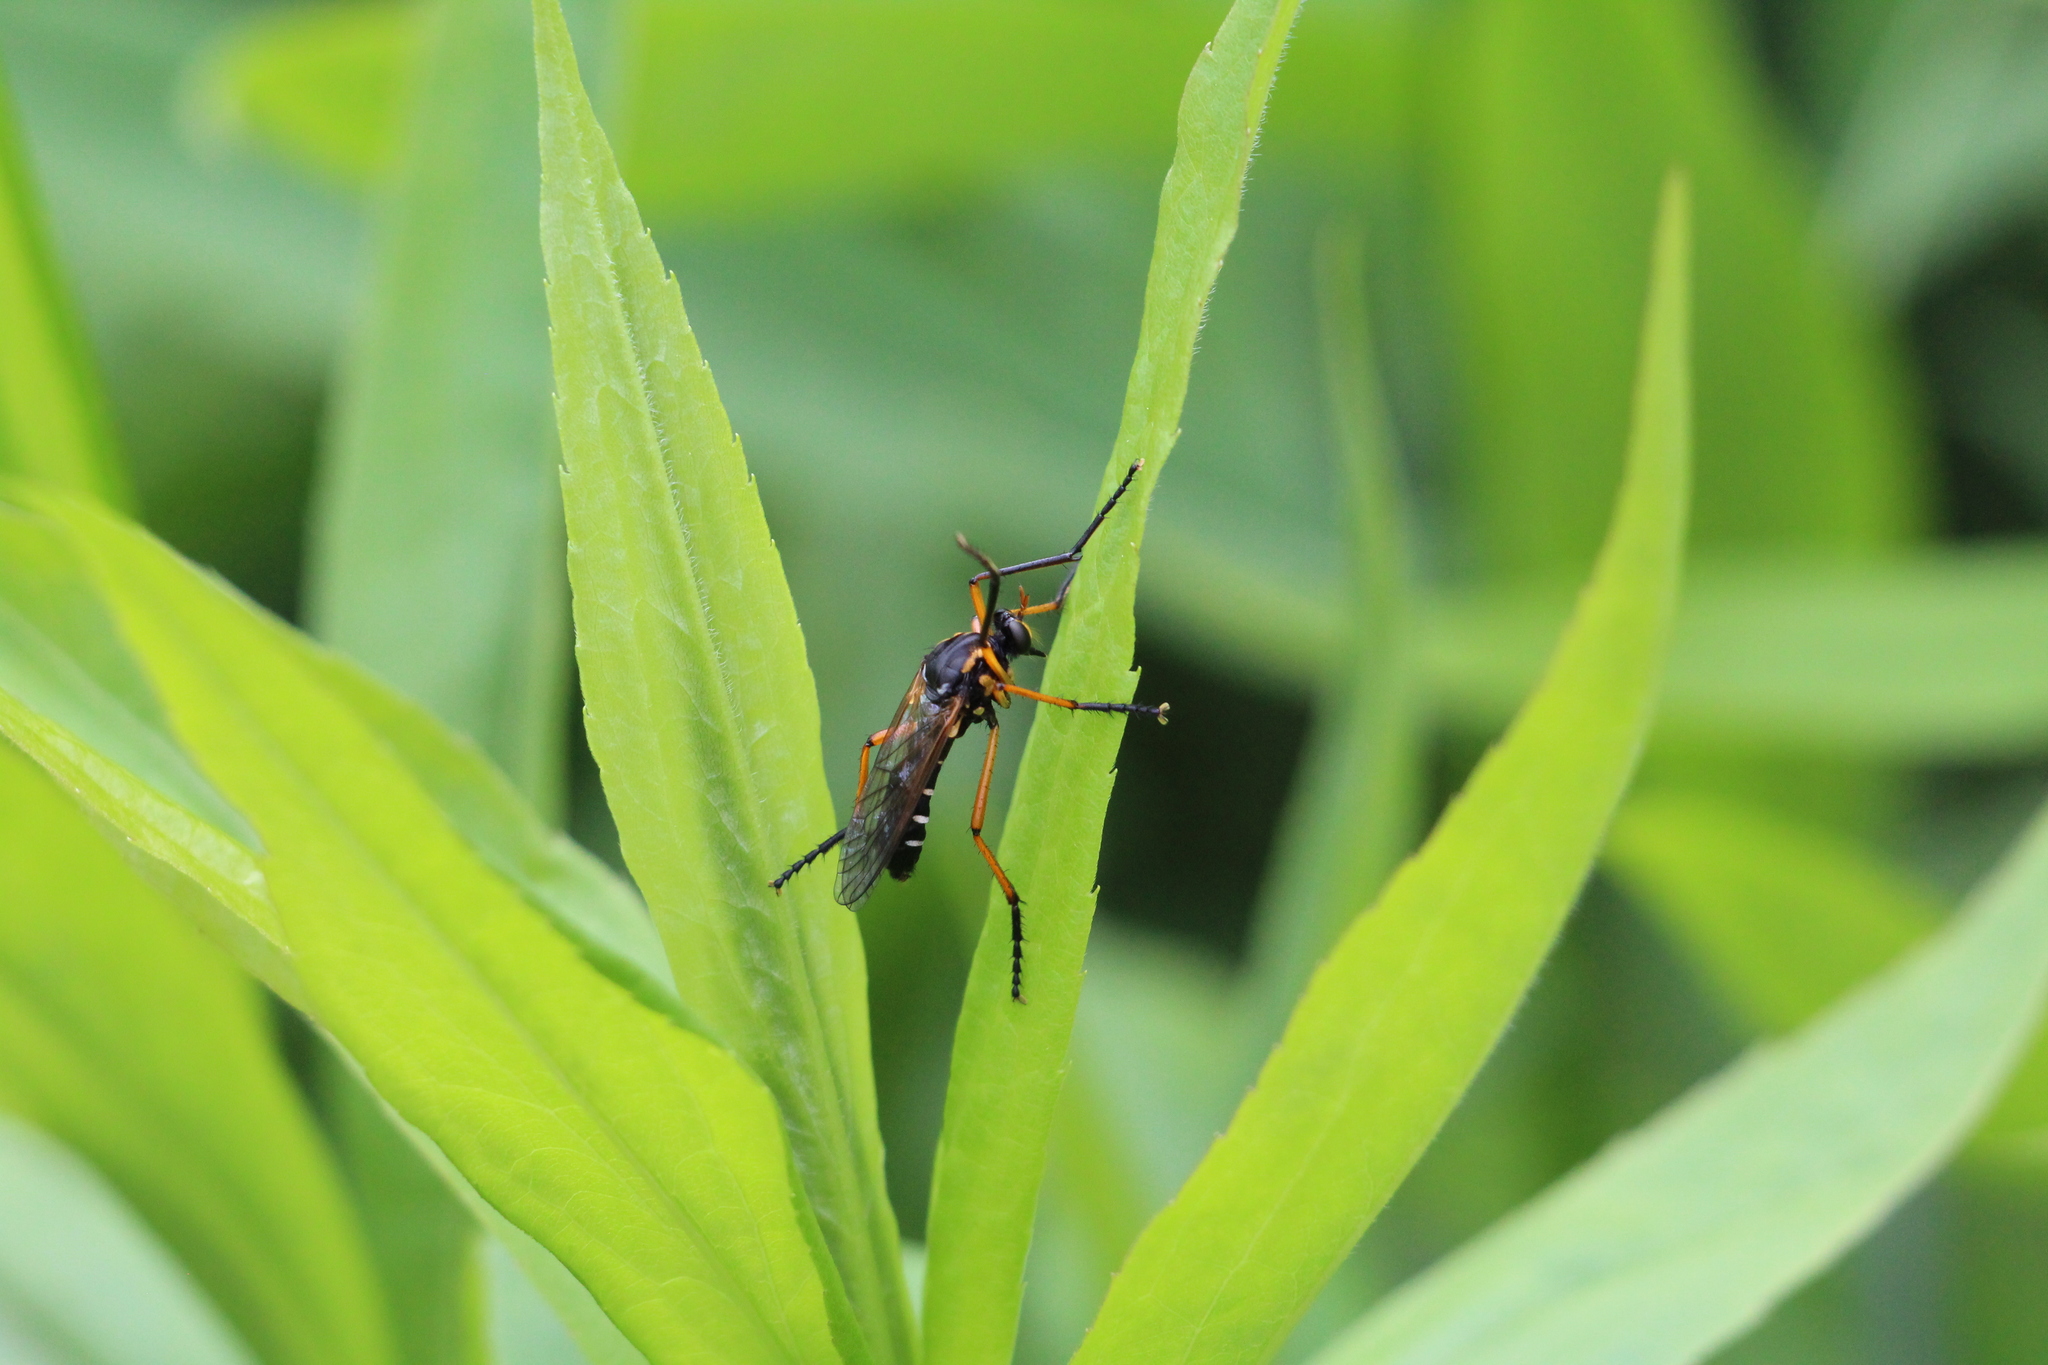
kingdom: Animalia
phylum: Arthropoda
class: Insecta
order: Diptera
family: Asilidae
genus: Molobratia
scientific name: Molobratia teutona
